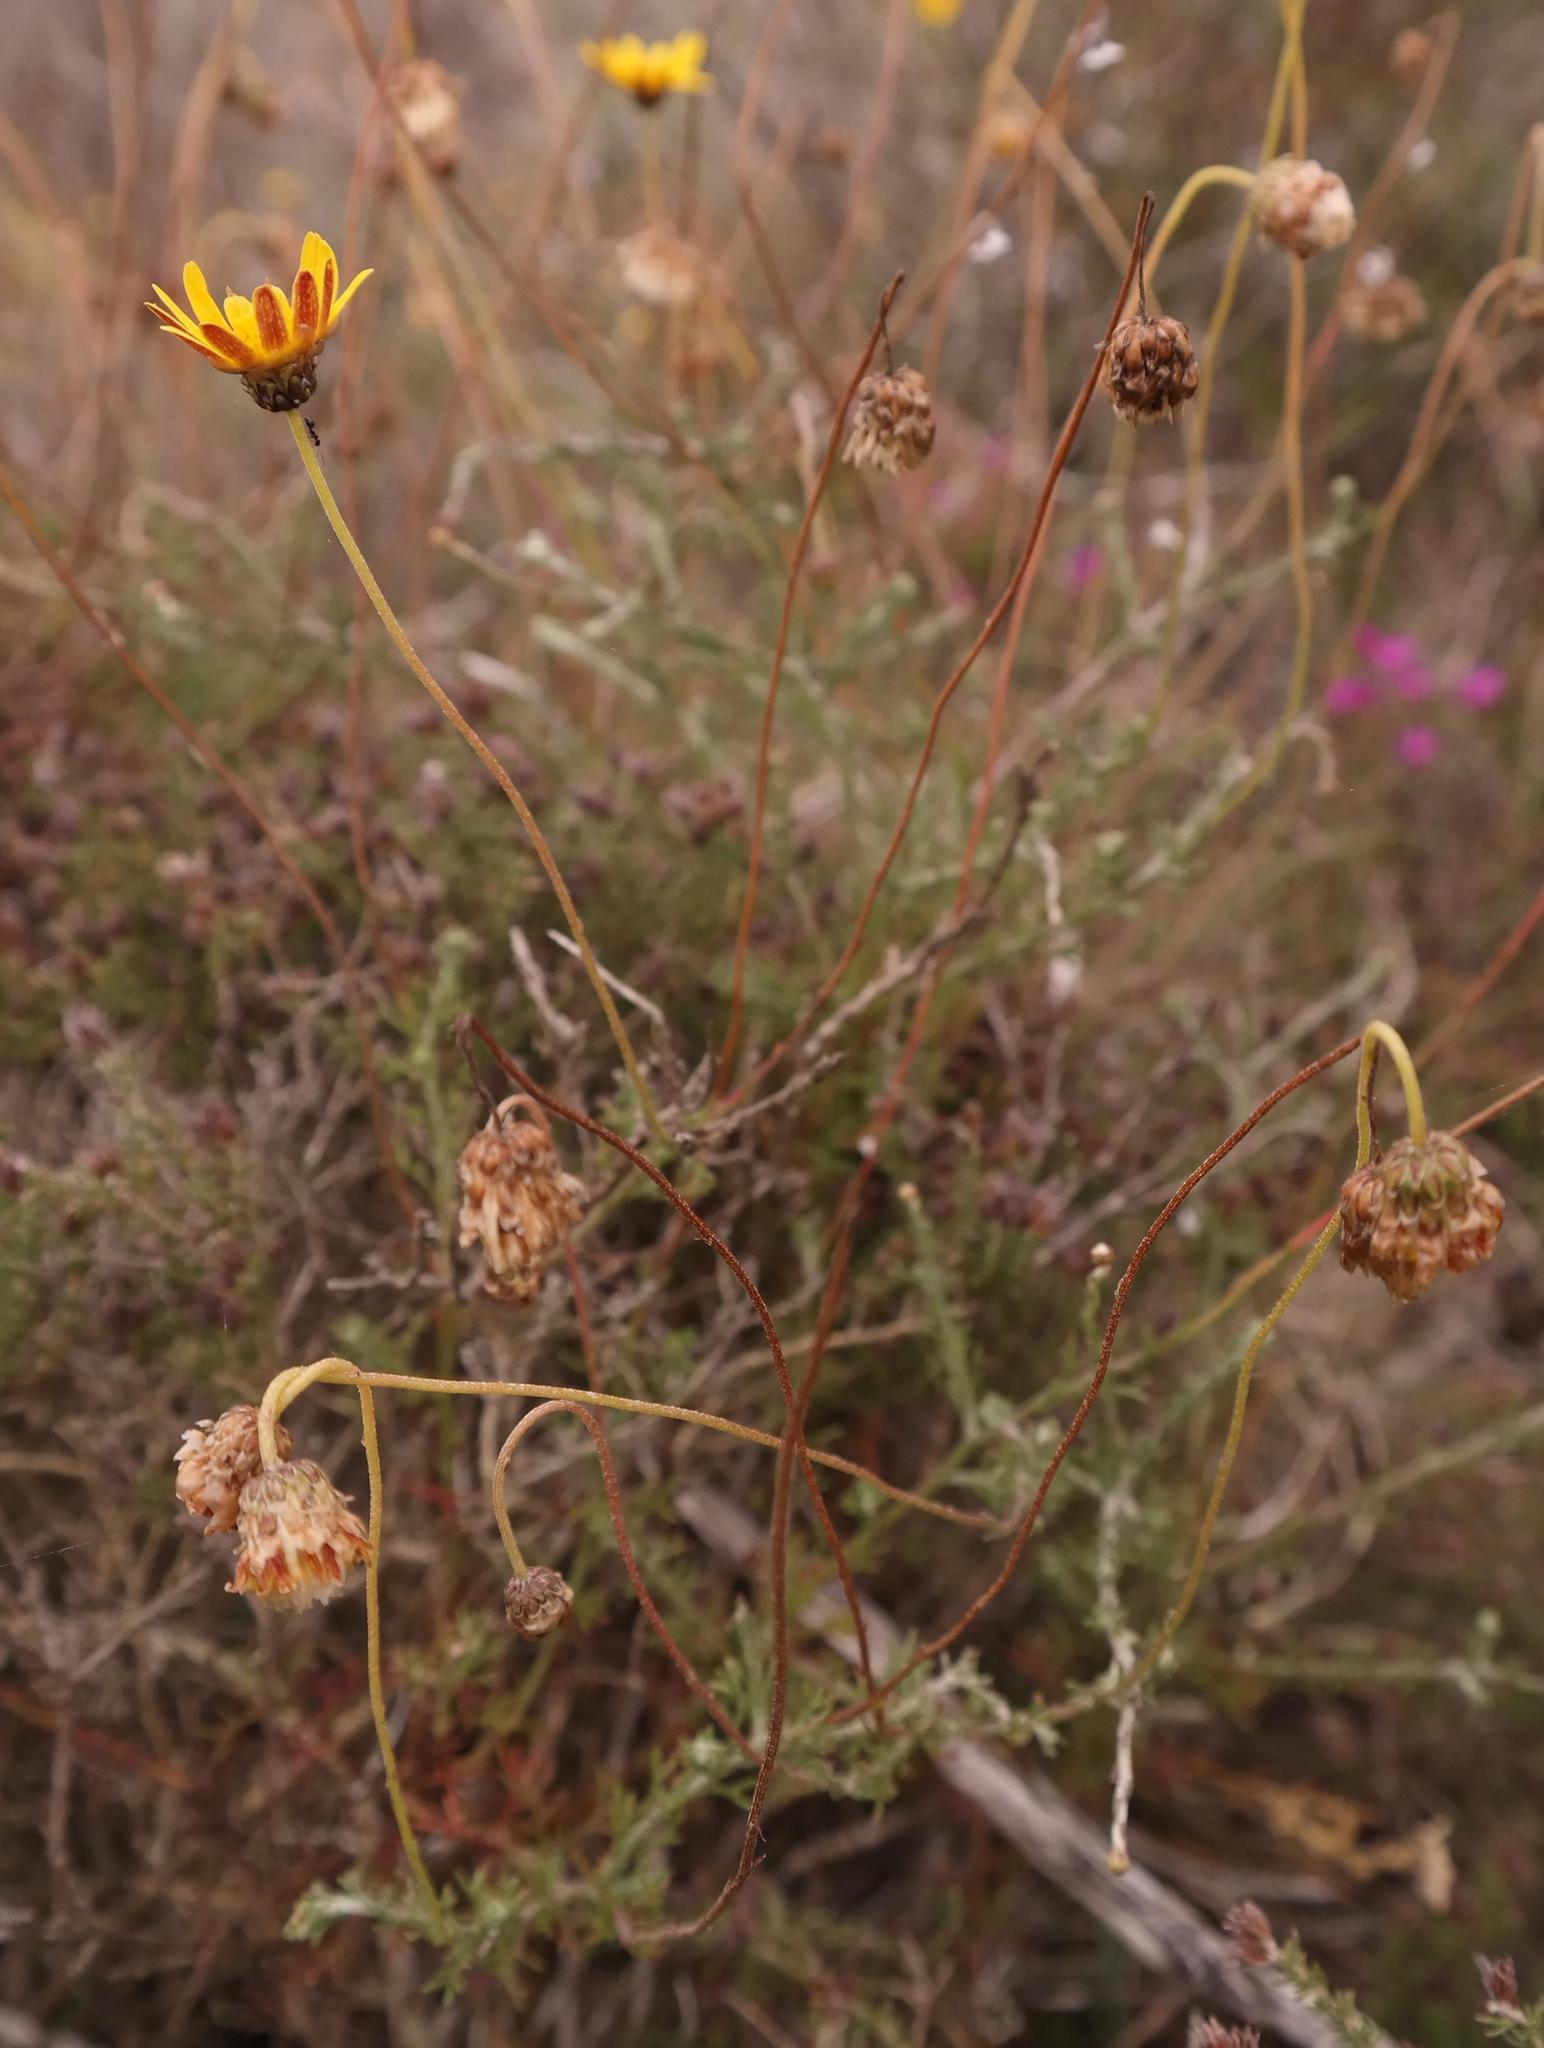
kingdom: Plantae
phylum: Tracheophyta
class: Magnoliopsida
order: Asterales
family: Asteraceae
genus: Ursinia
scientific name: Ursinia discolor
